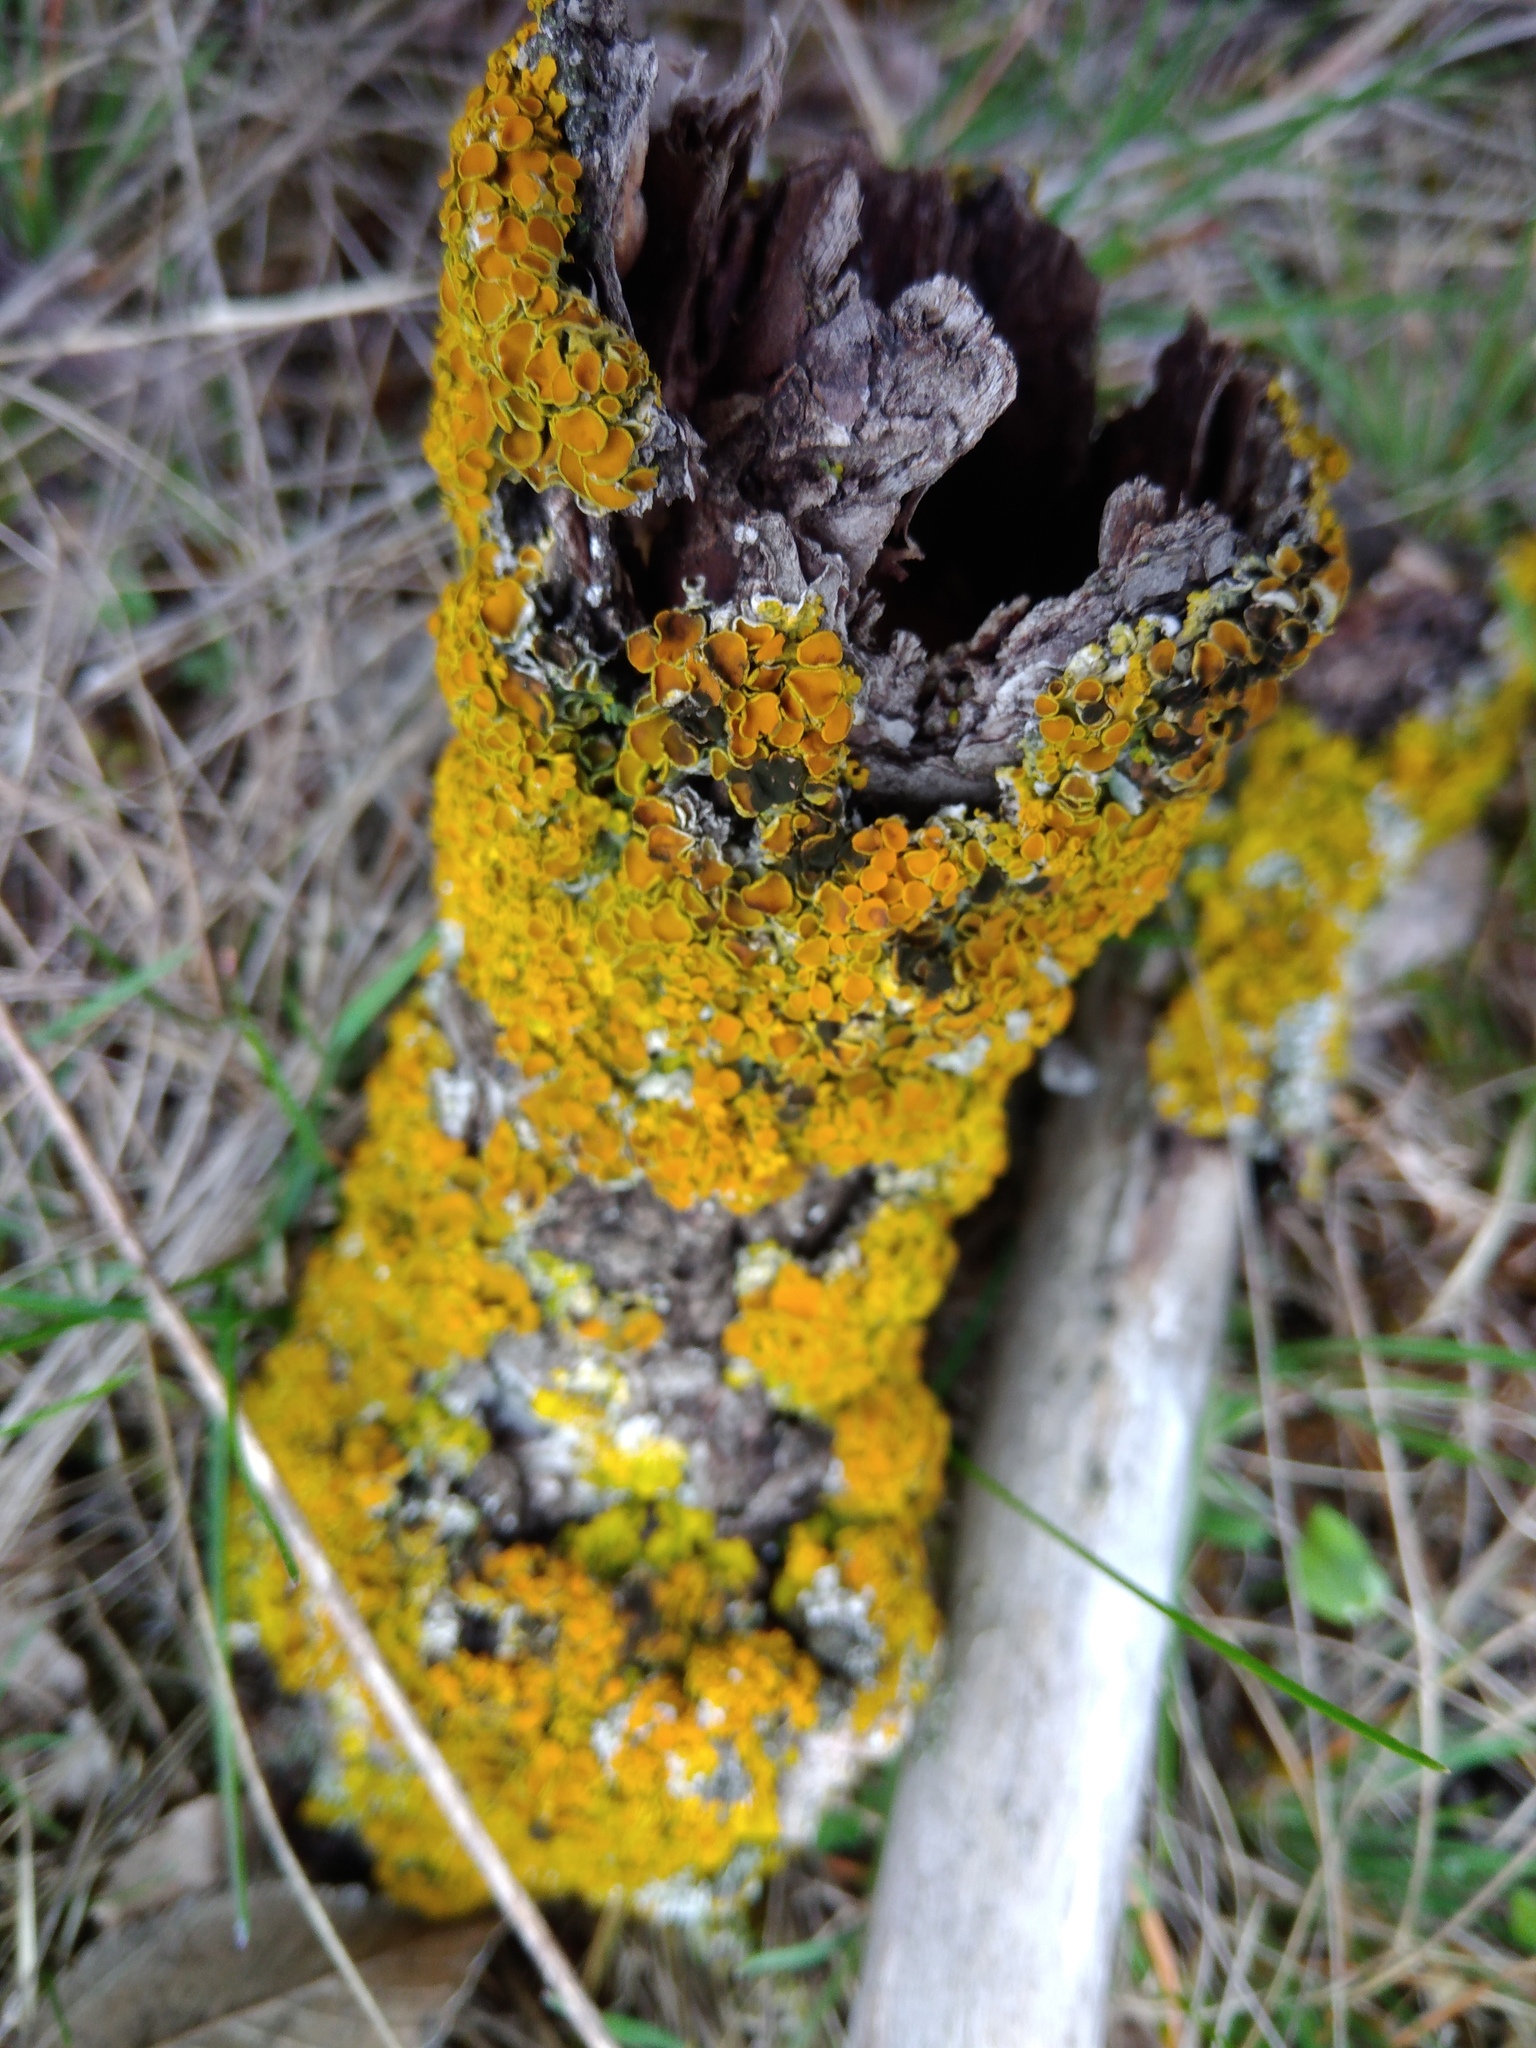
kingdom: Fungi
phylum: Ascomycota
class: Dothideomycetes
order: Mycosphaerellales
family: Teratosphaeriaceae
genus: Xanthoriicola
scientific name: Xanthoriicola physciae
